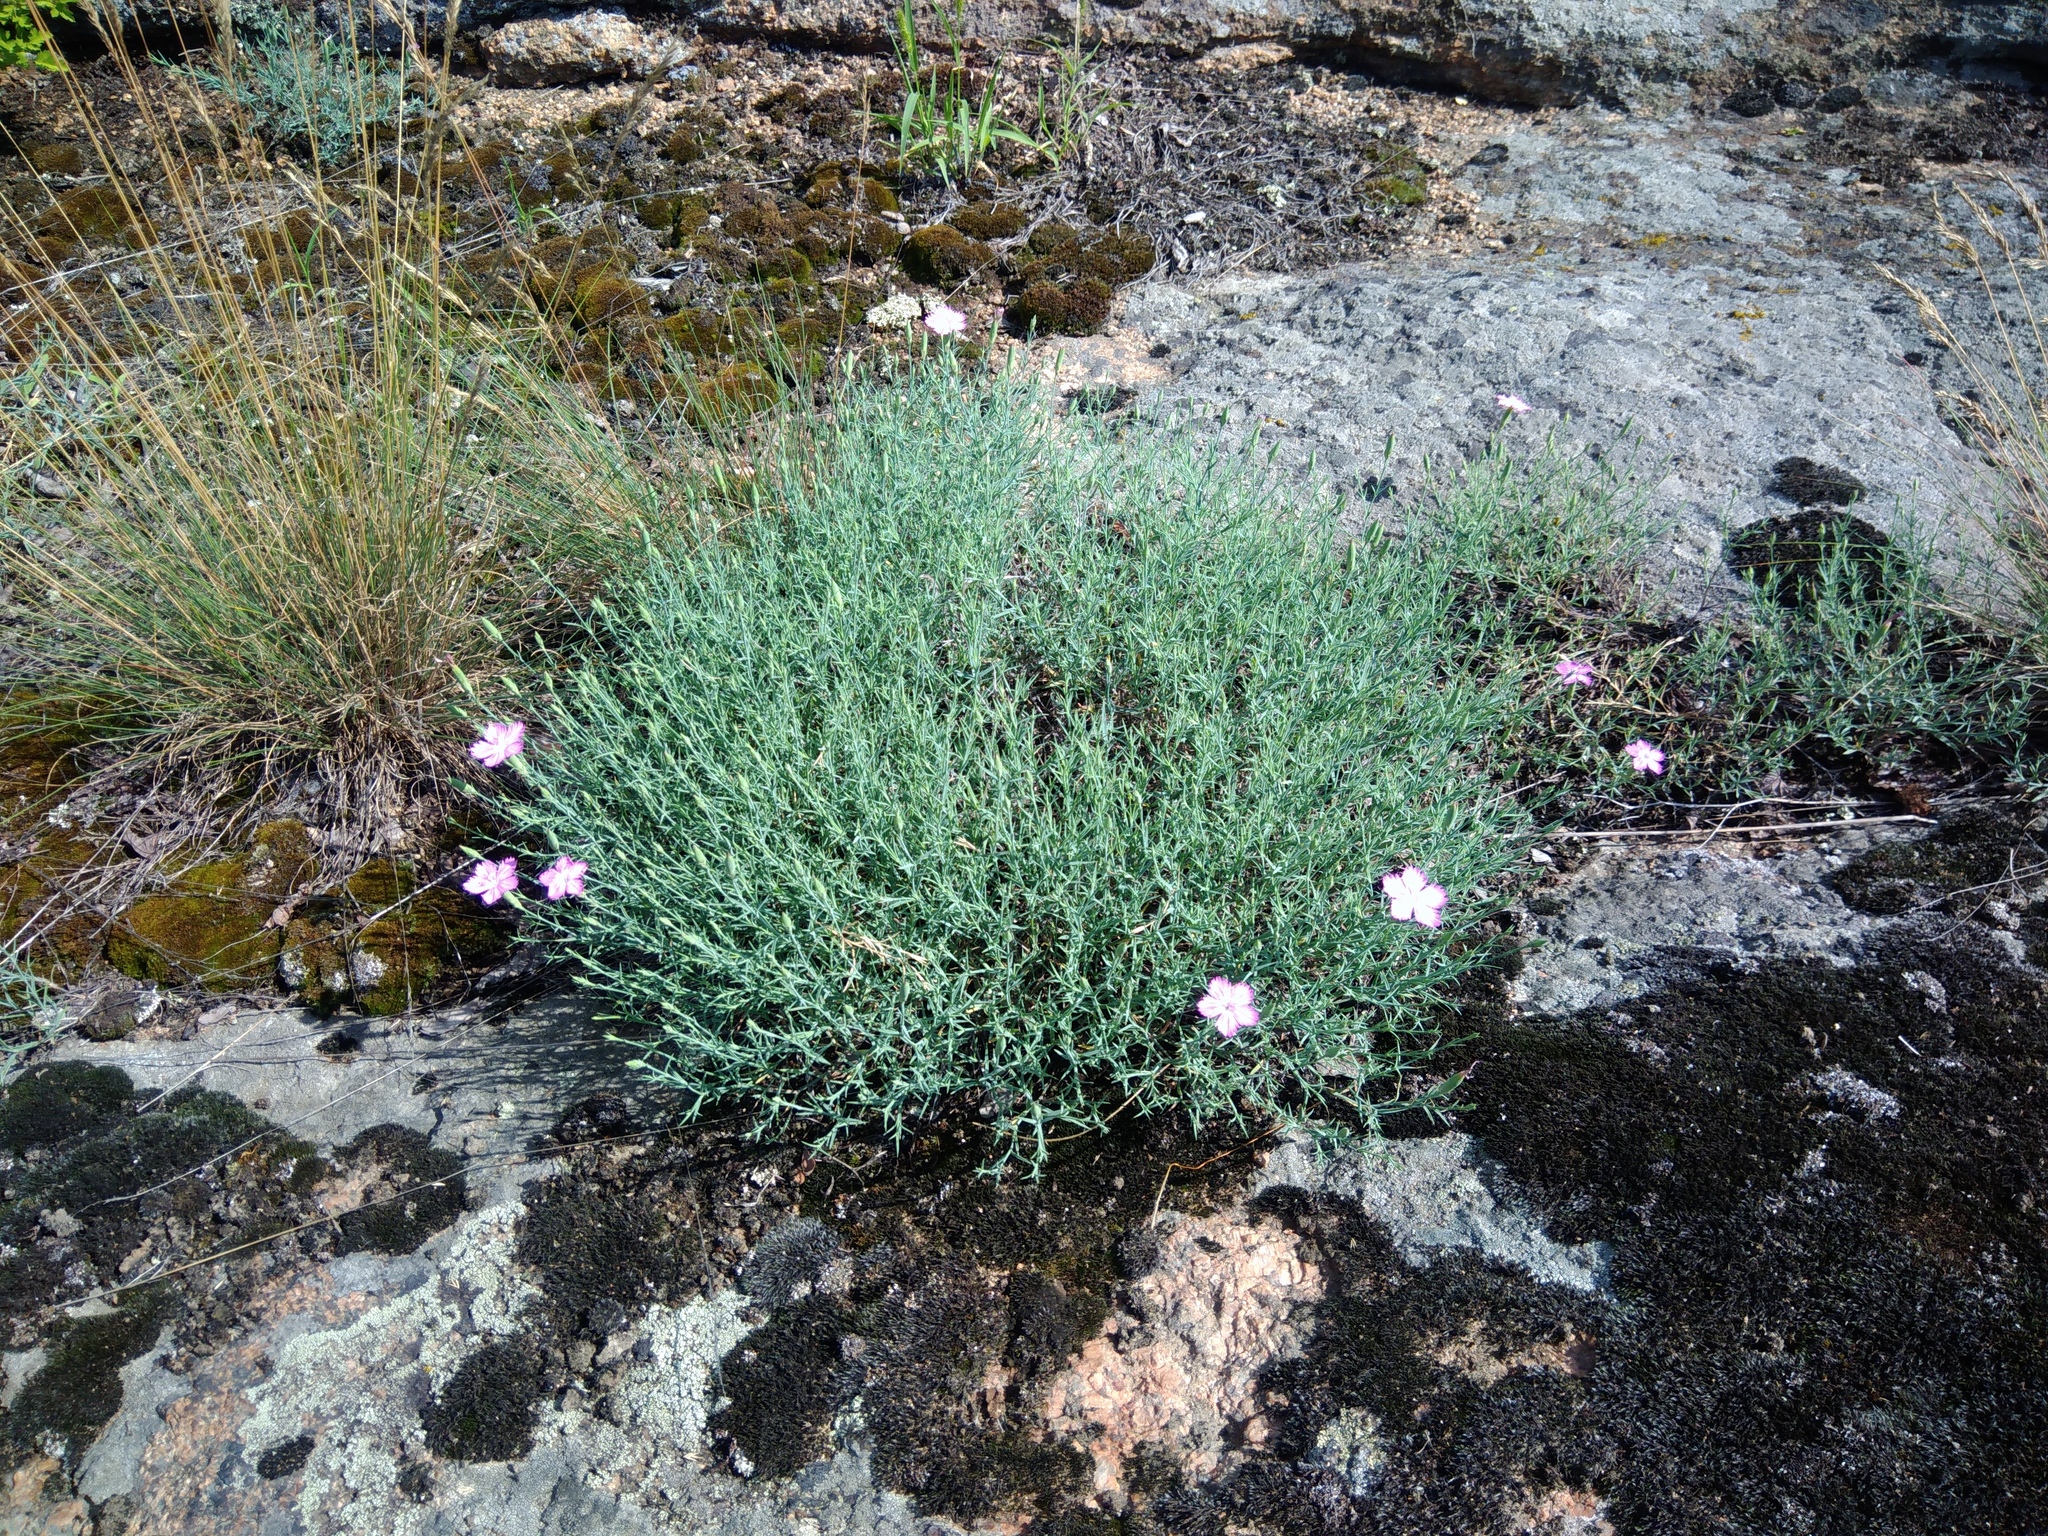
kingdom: Plantae
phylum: Tracheophyta
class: Magnoliopsida
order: Caryophyllales
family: Caryophyllaceae
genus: Dianthus
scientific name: Dianthus hypanicus
